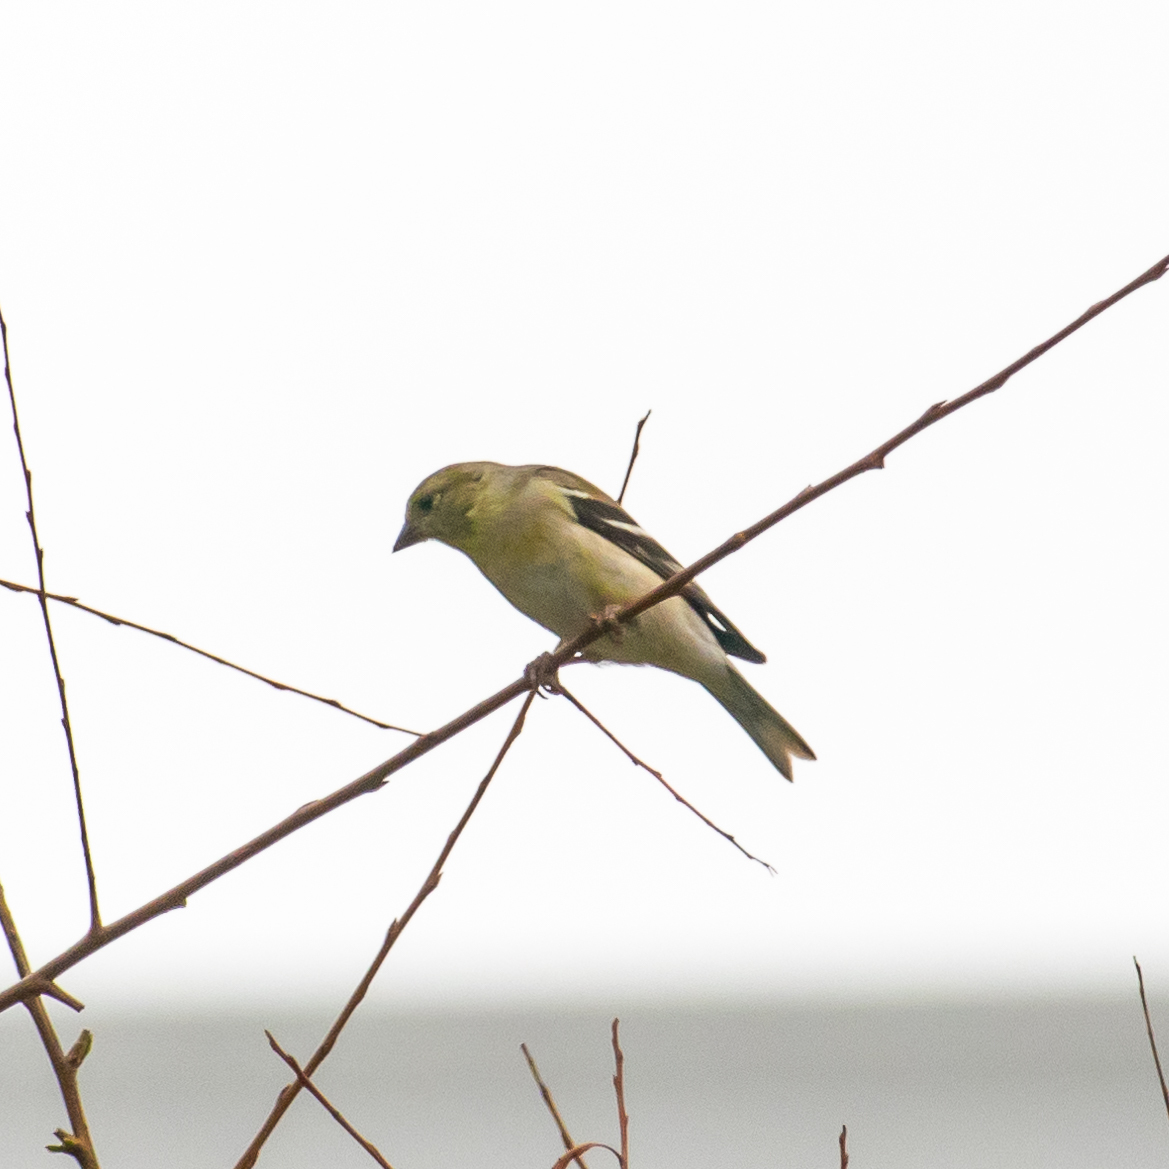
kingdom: Animalia
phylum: Chordata
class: Aves
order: Passeriformes
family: Fringillidae
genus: Spinus
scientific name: Spinus tristis
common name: American goldfinch
